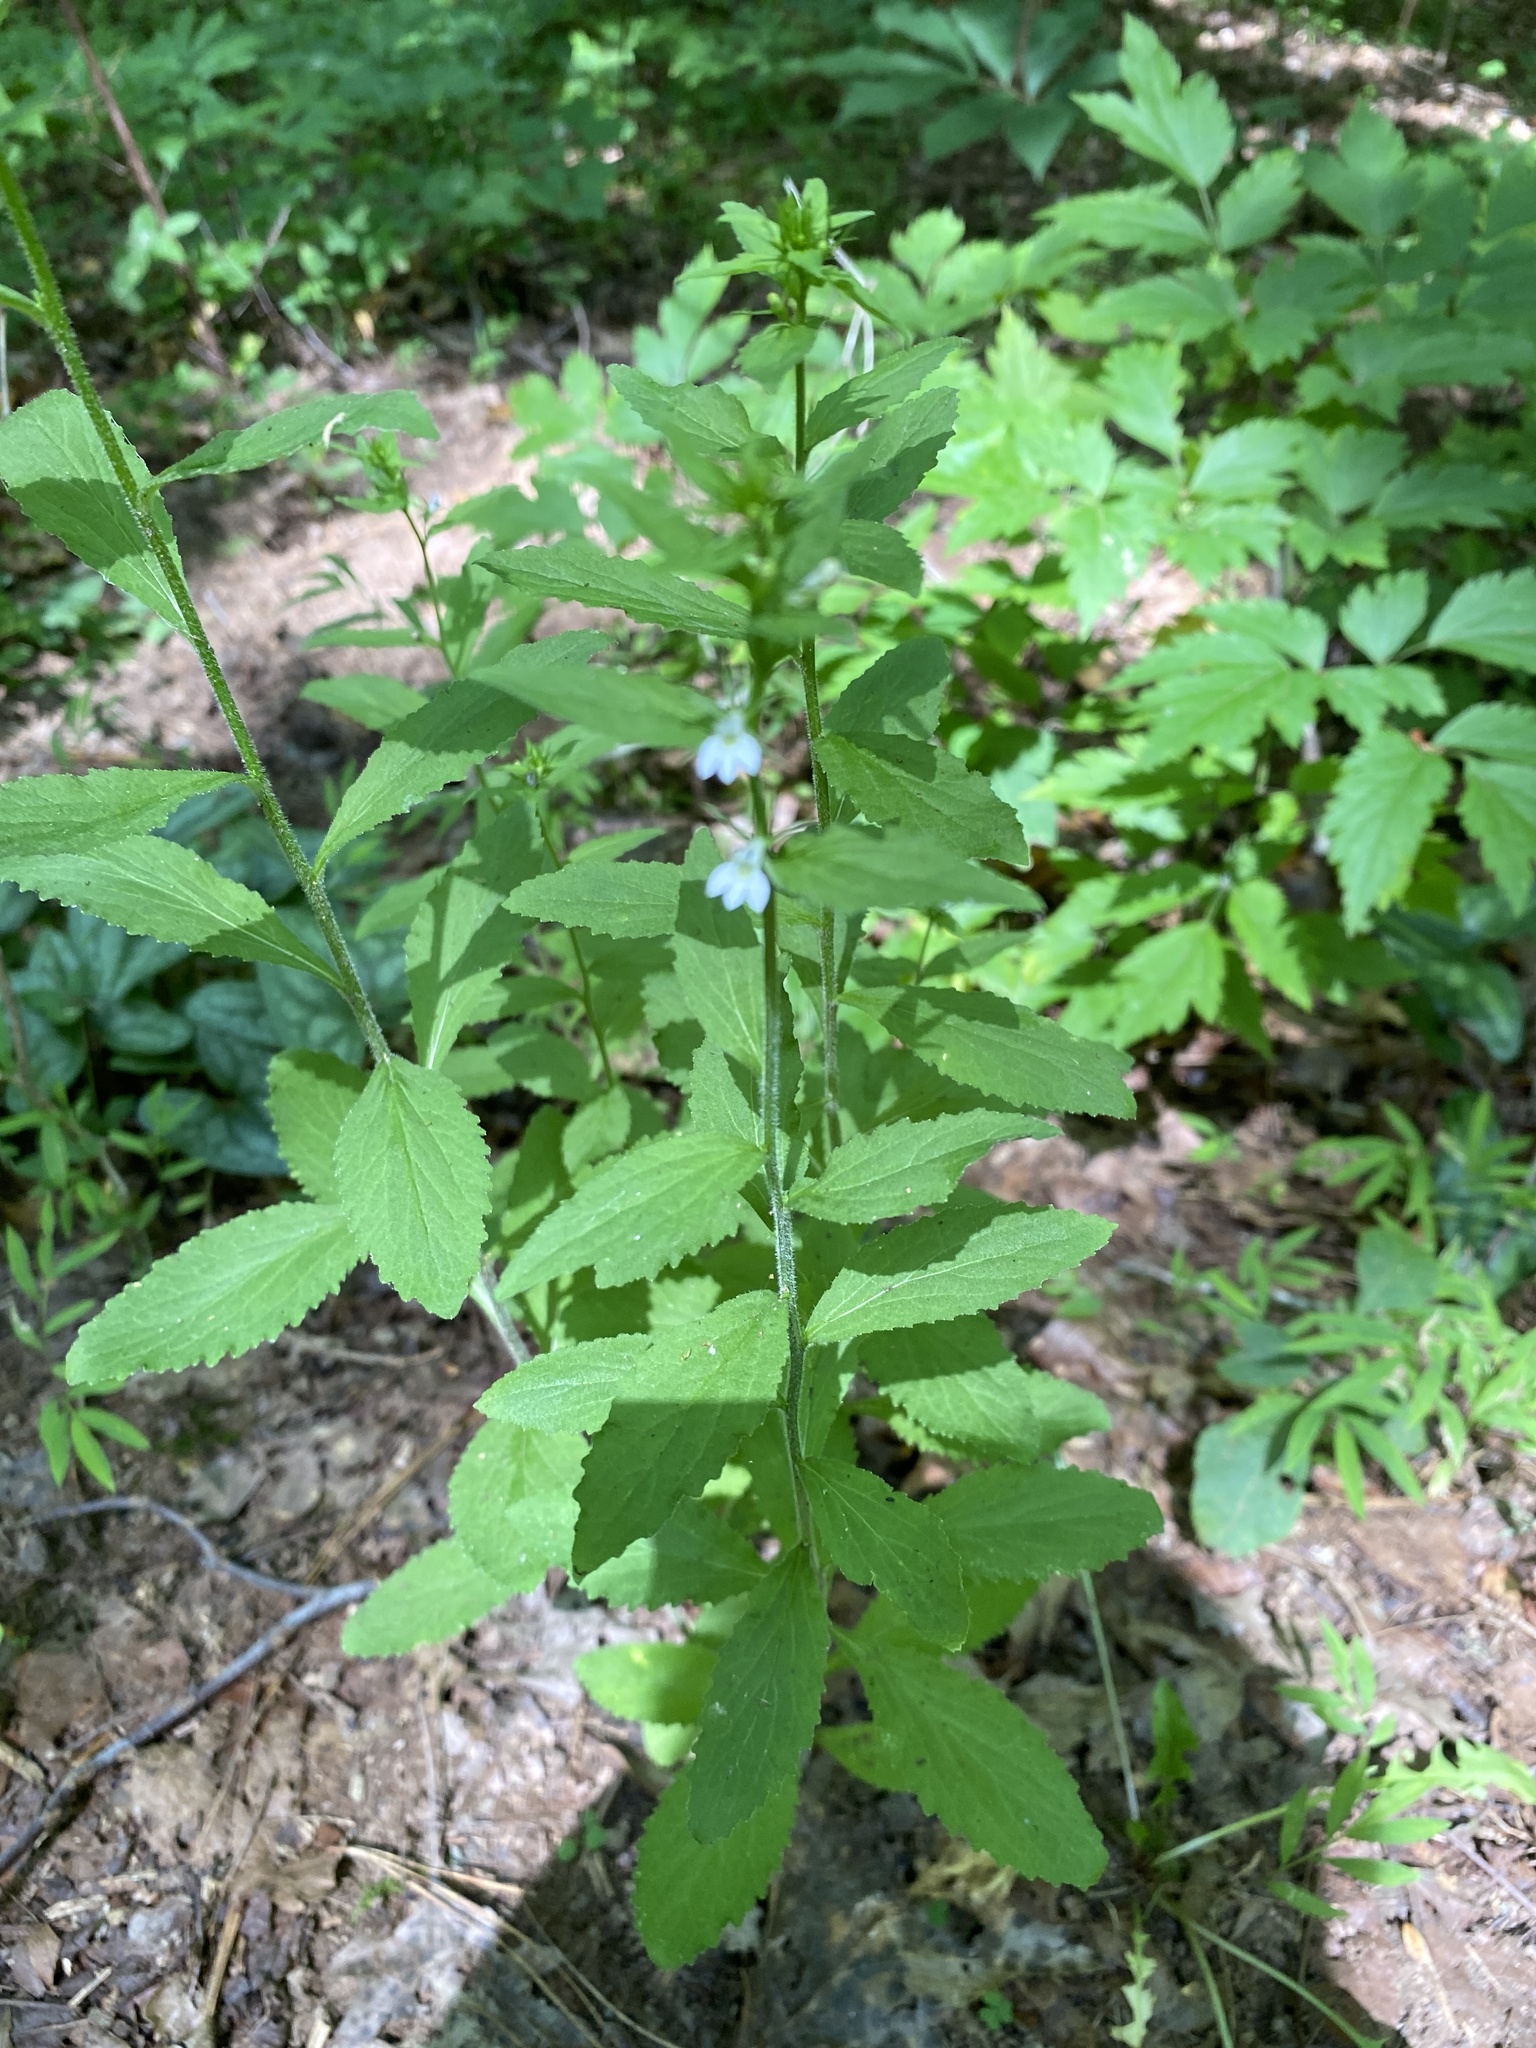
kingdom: Plantae
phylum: Tracheophyta
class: Magnoliopsida
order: Asterales
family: Campanulaceae
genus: Lobelia
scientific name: Lobelia inflata
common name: Indian tobacco
